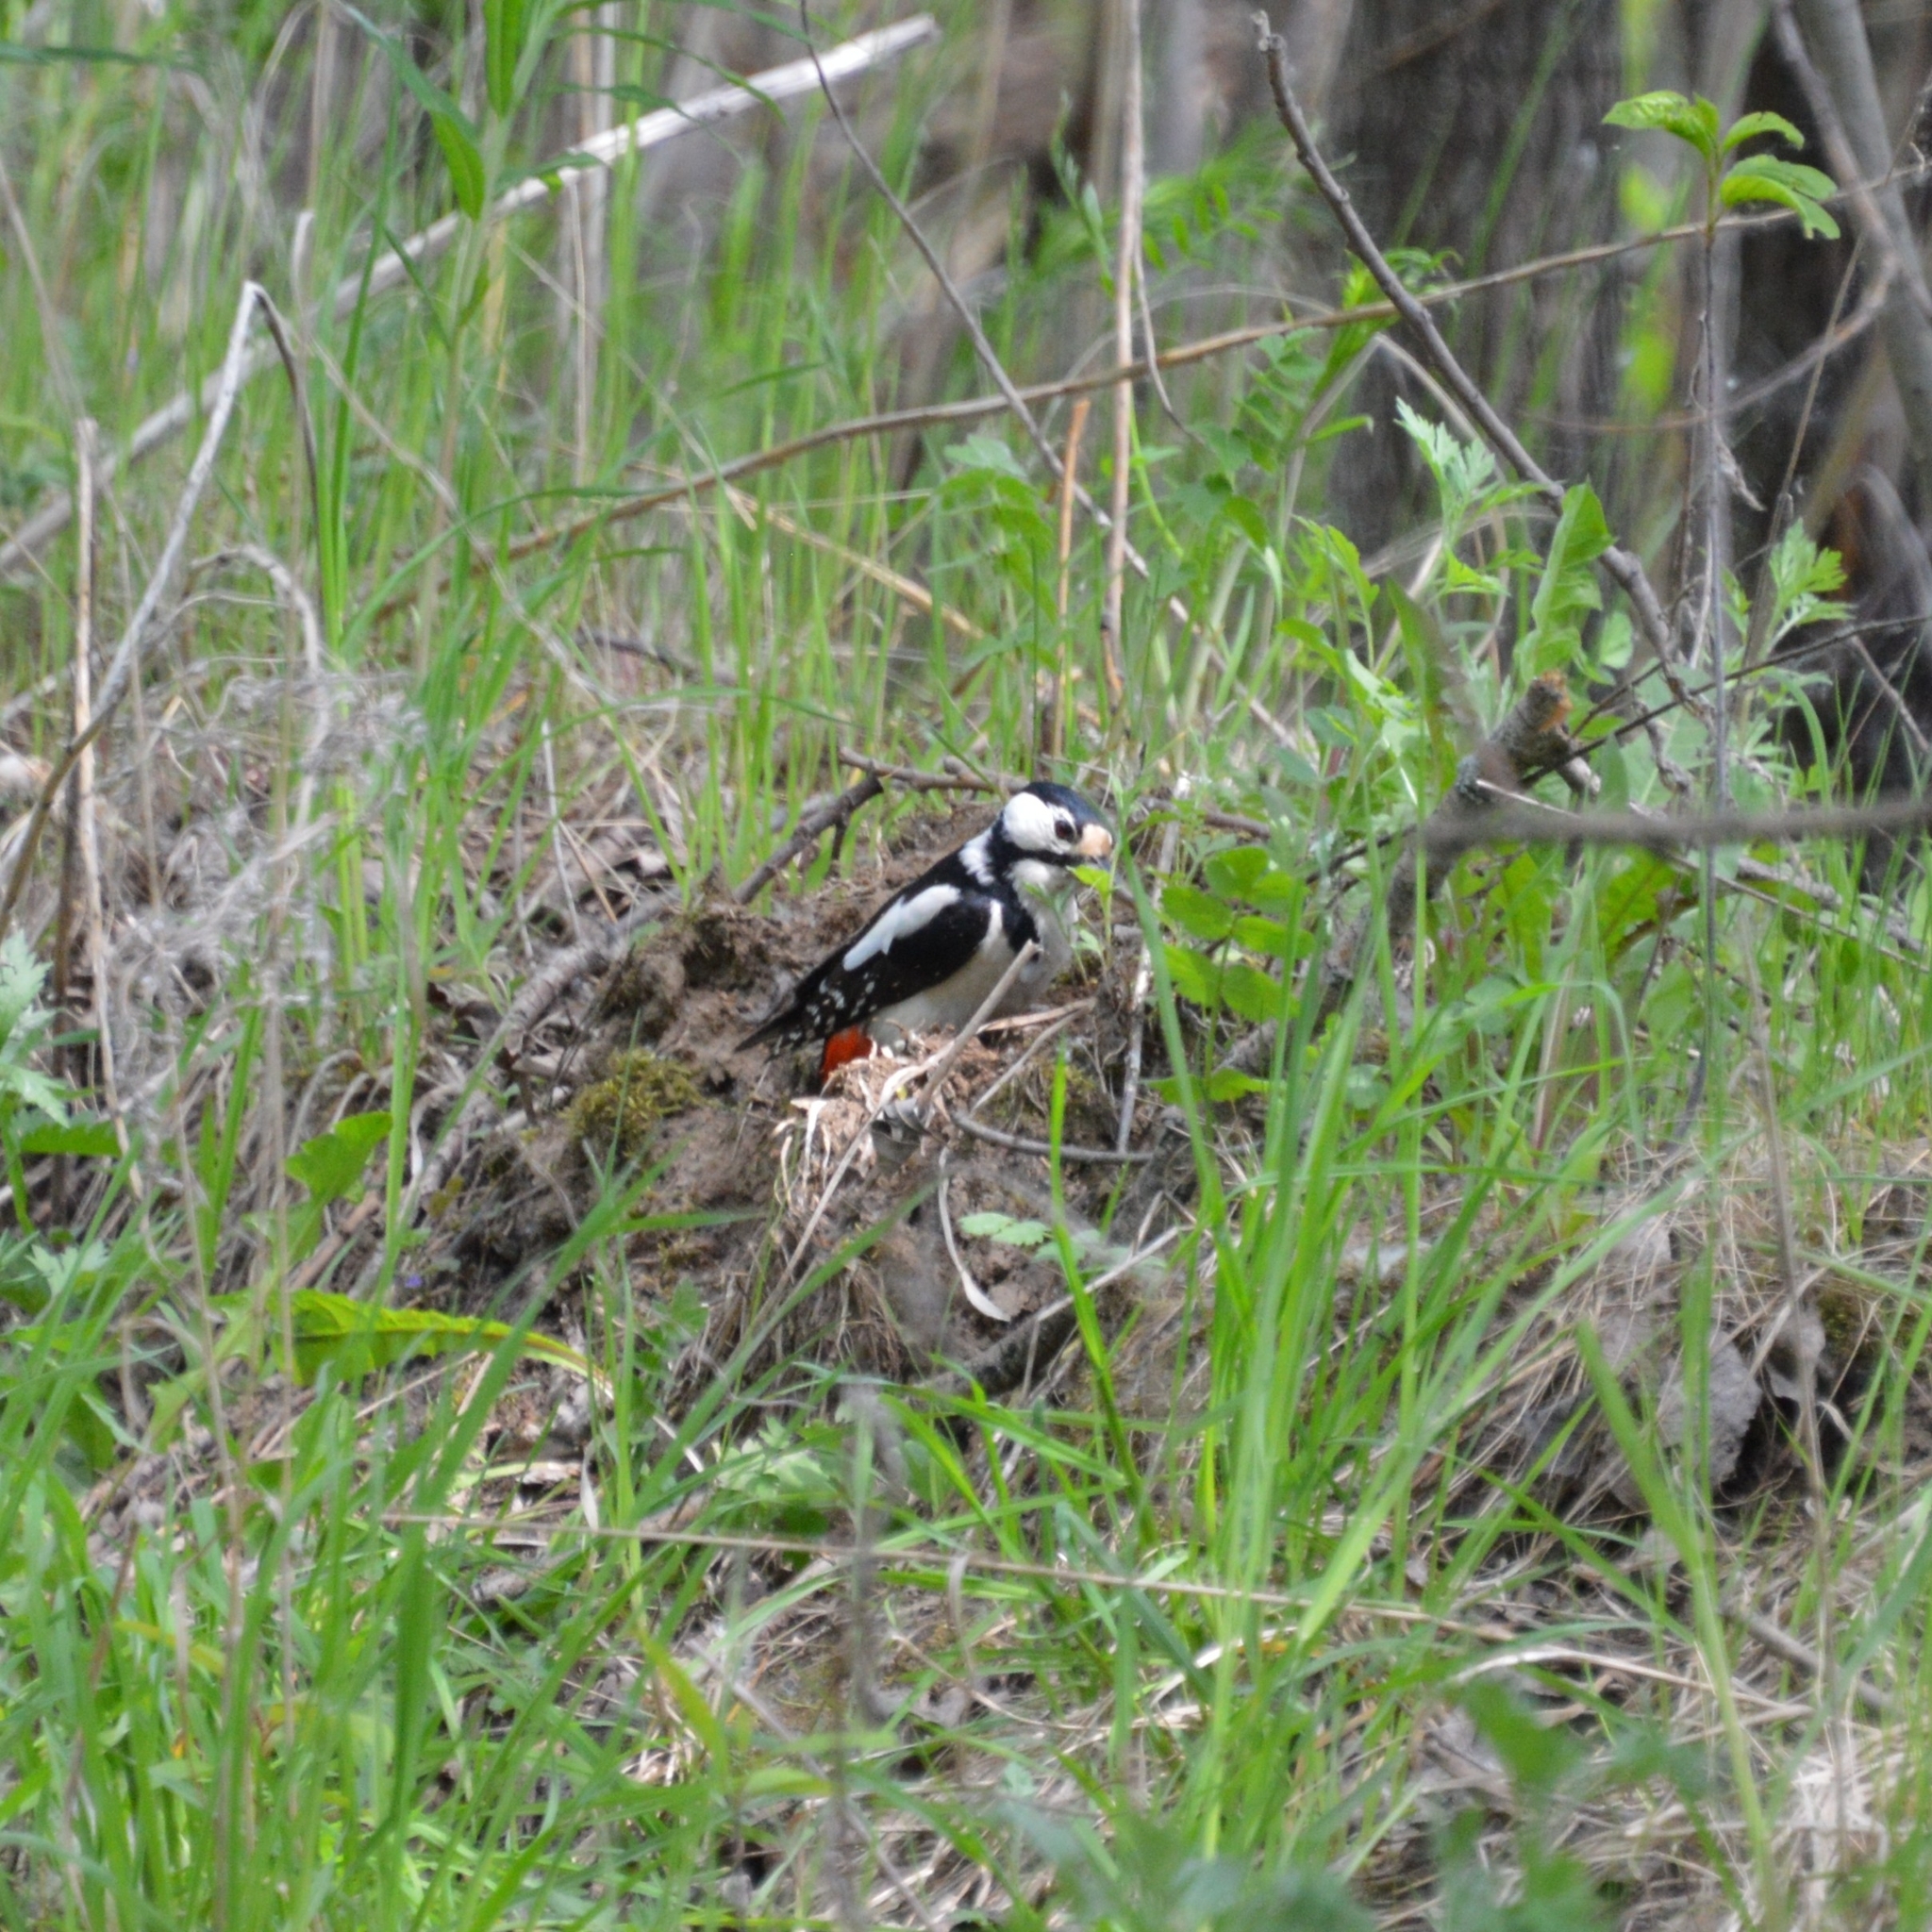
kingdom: Animalia
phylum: Chordata
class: Aves
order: Piciformes
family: Picidae
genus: Dendrocopos
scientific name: Dendrocopos major
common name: Great spotted woodpecker
